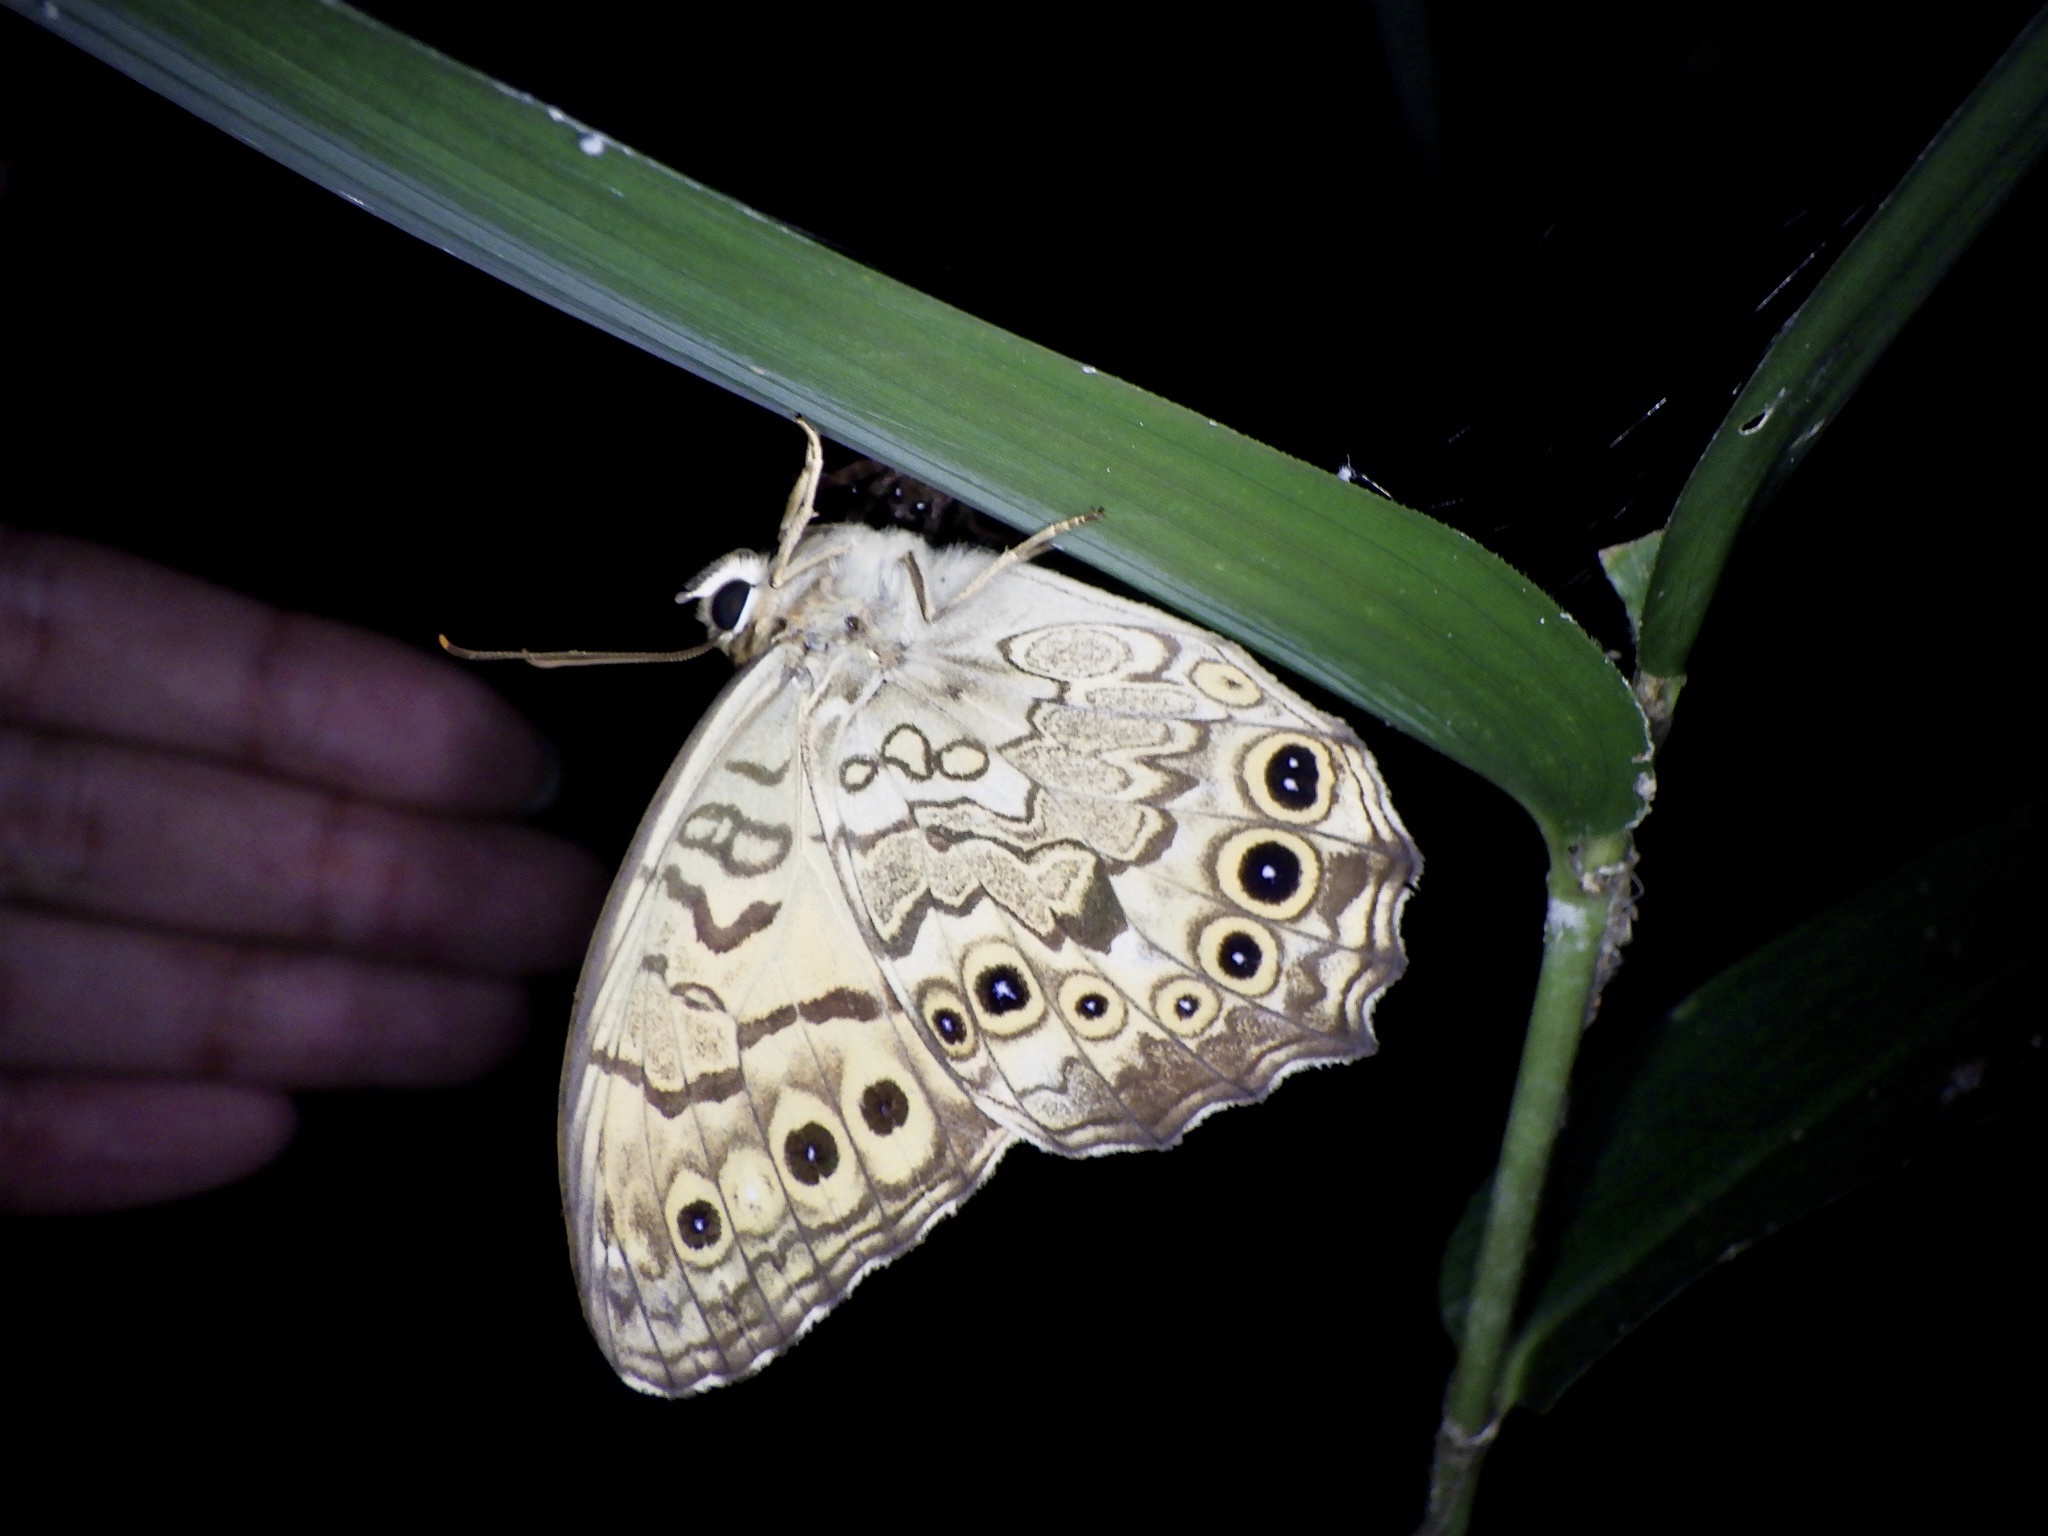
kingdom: Animalia
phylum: Arthropoda
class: Insecta
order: Lepidoptera
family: Nymphalidae
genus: Neope
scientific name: Neope goschkevitschii
